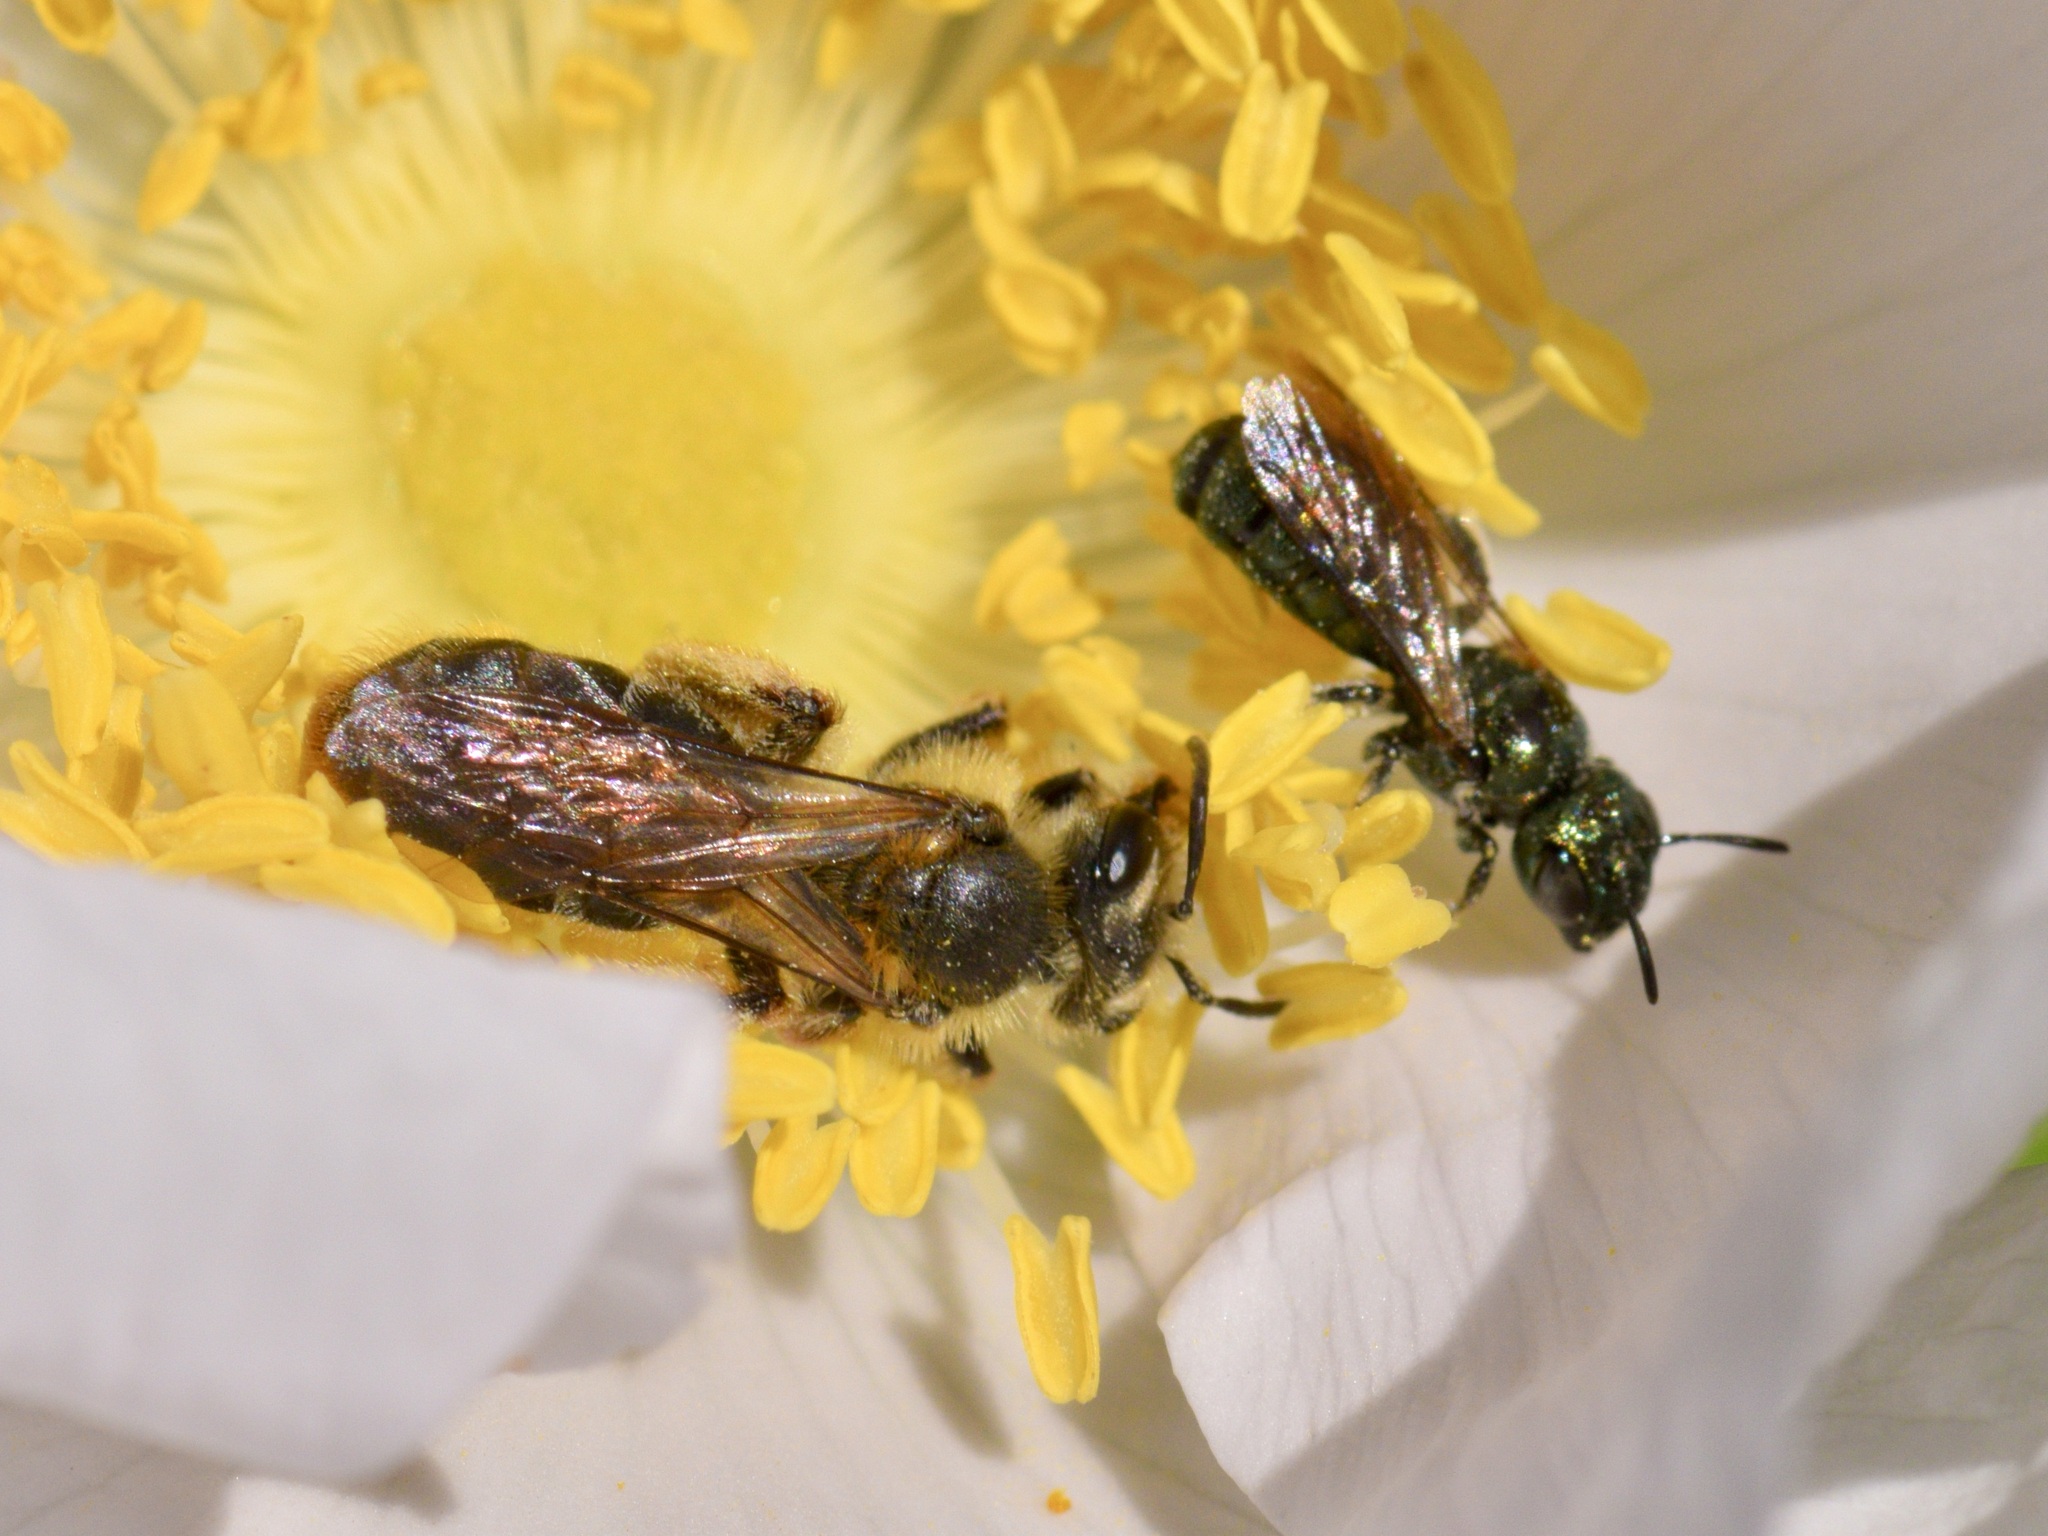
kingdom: Animalia
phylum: Arthropoda
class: Insecta
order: Hymenoptera
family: Andrenidae
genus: Andrena
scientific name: Andrena thaspii
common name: Parsnip miner bee
